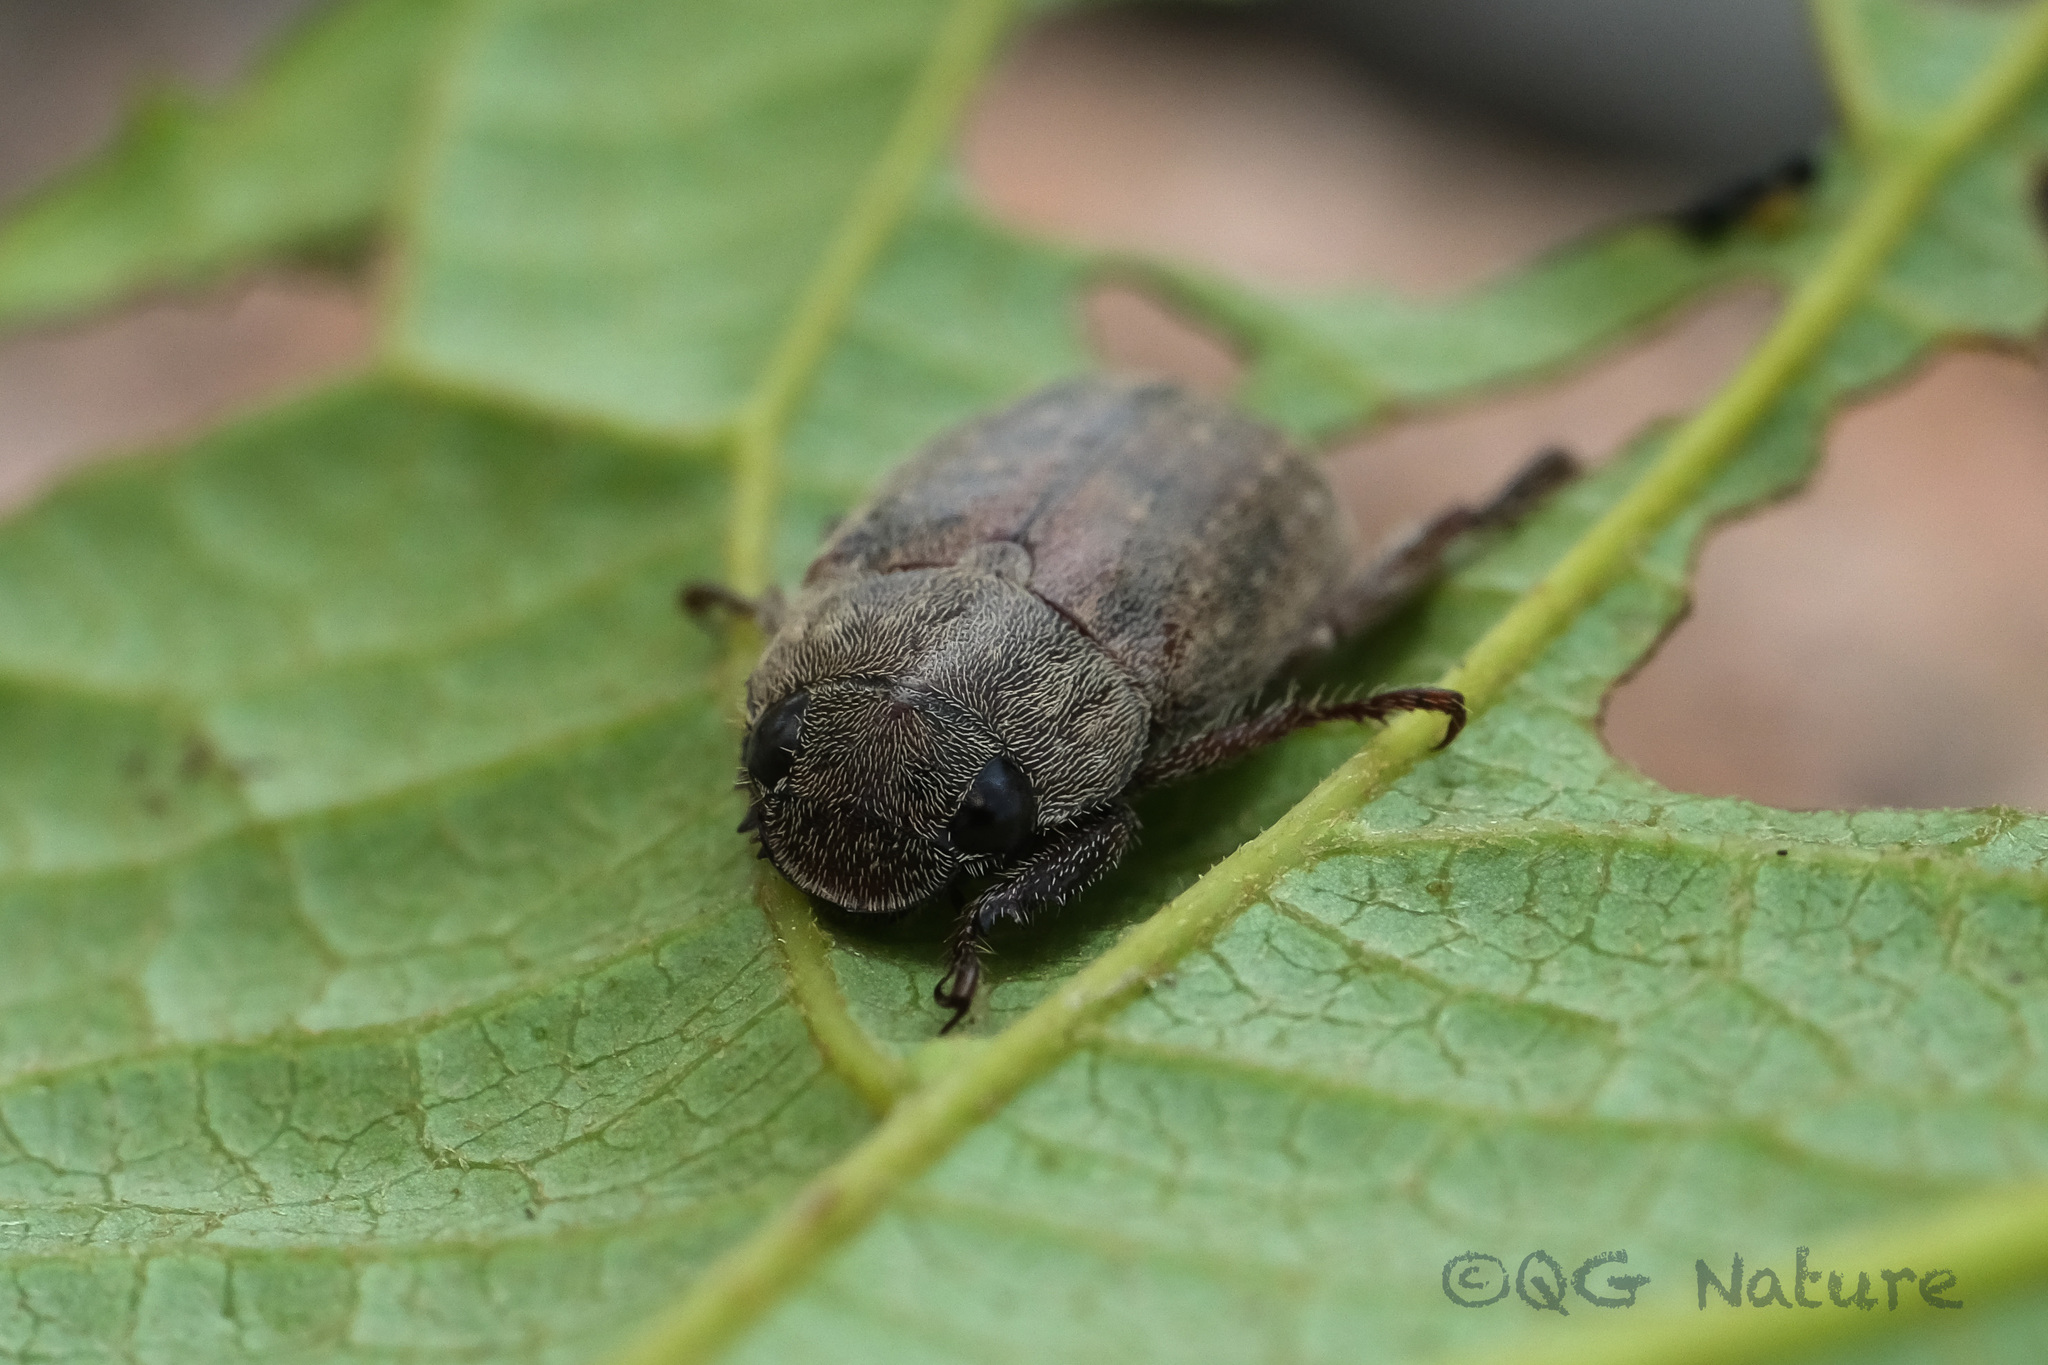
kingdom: Animalia
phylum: Arthropoda
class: Insecta
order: Coleoptera
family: Scarabaeidae
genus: Adoretus
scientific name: Adoretus sinicus
